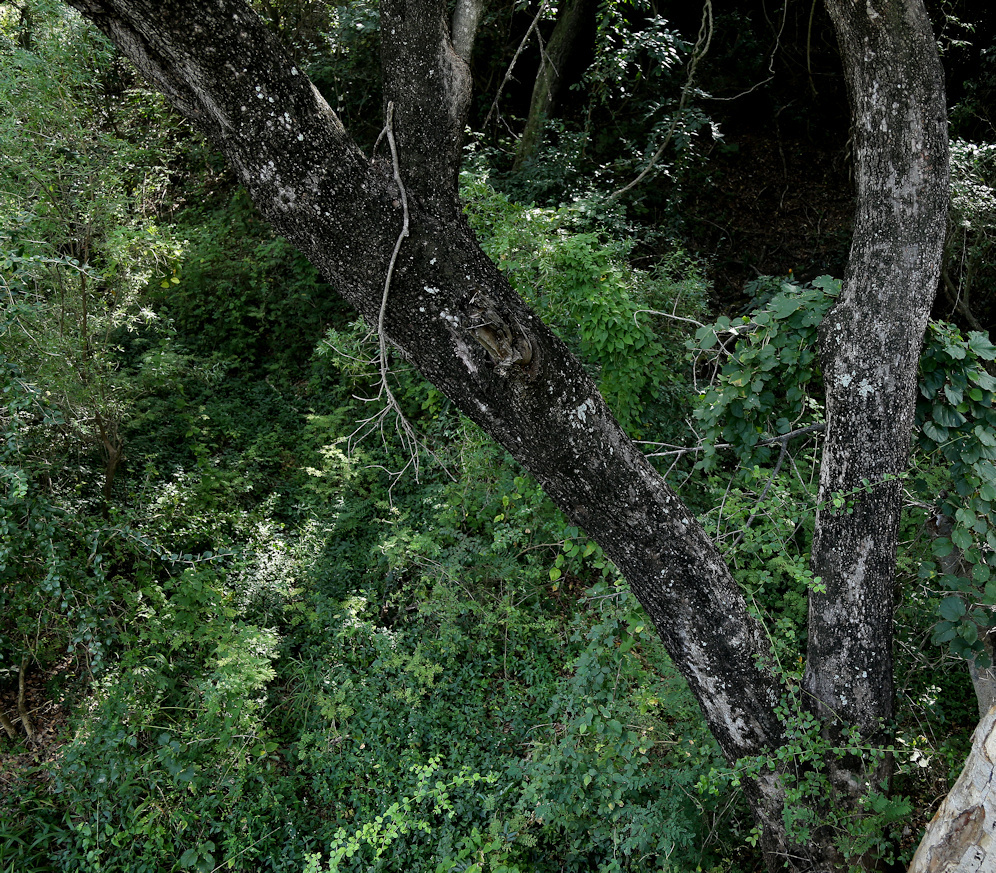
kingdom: Plantae
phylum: Tracheophyta
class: Magnoliopsida
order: Myrtales
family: Myrtaceae
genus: Syzygium
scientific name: Syzygium guineense
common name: Water-pear
